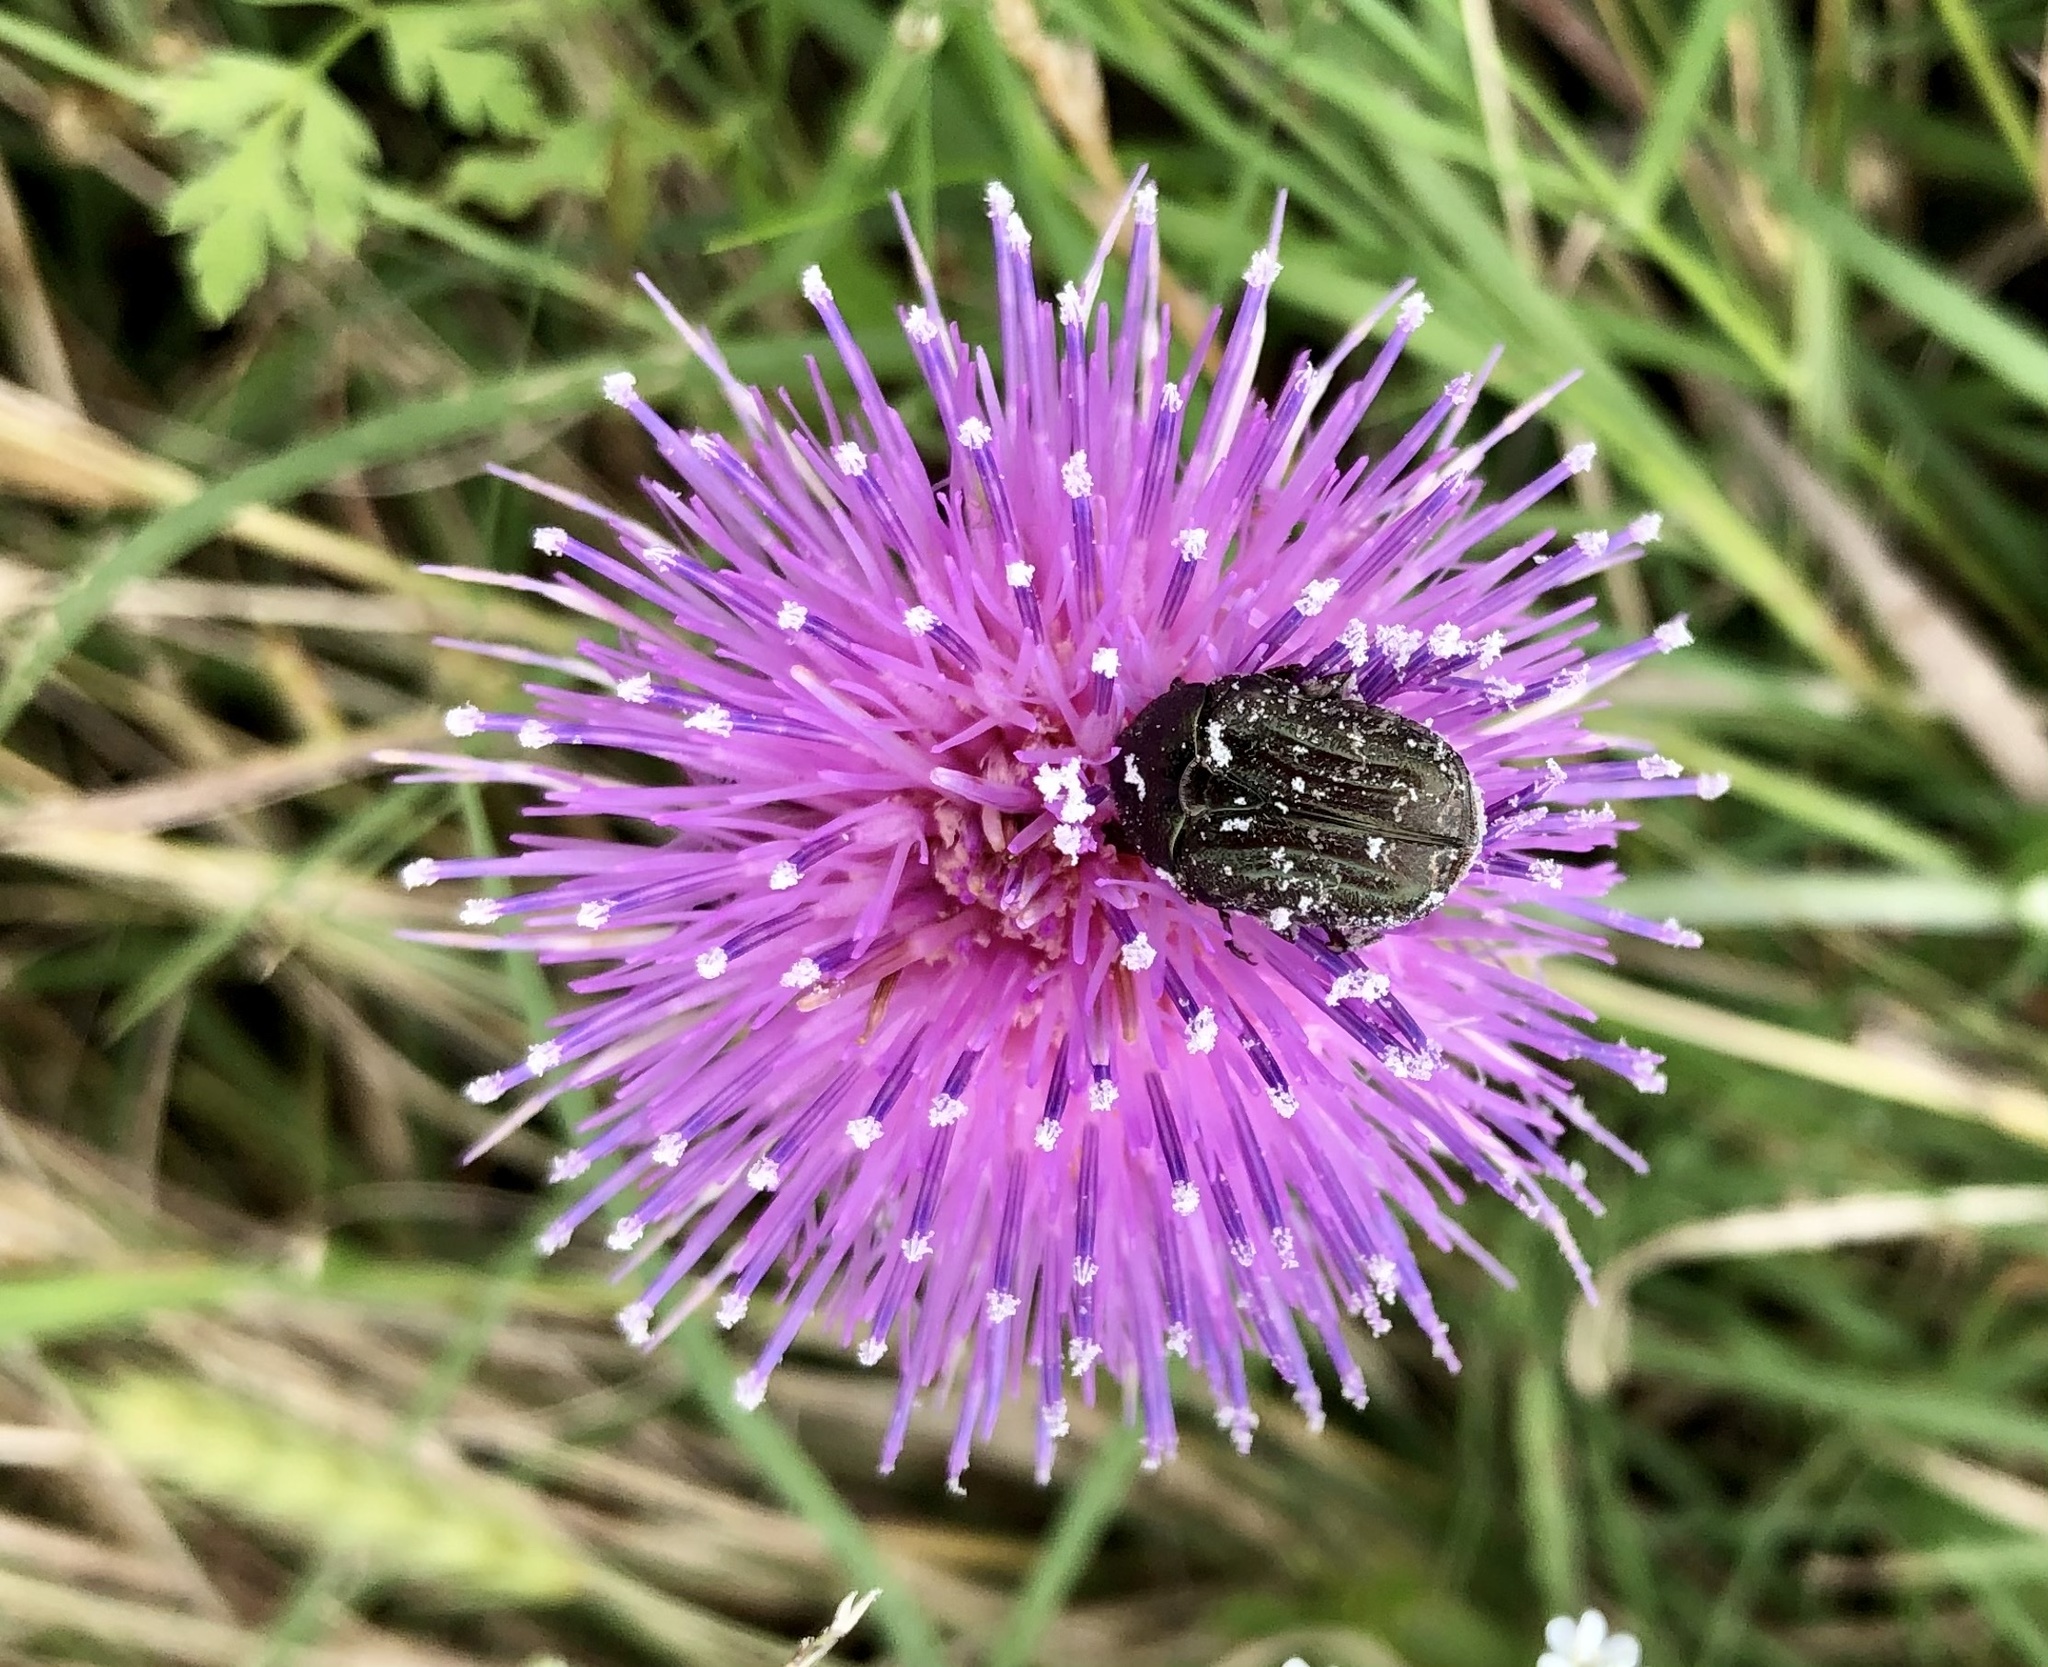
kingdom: Animalia
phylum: Arthropoda
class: Insecta
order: Coleoptera
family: Scarabaeidae
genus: Euphoria
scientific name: Euphoria sepulcralis
